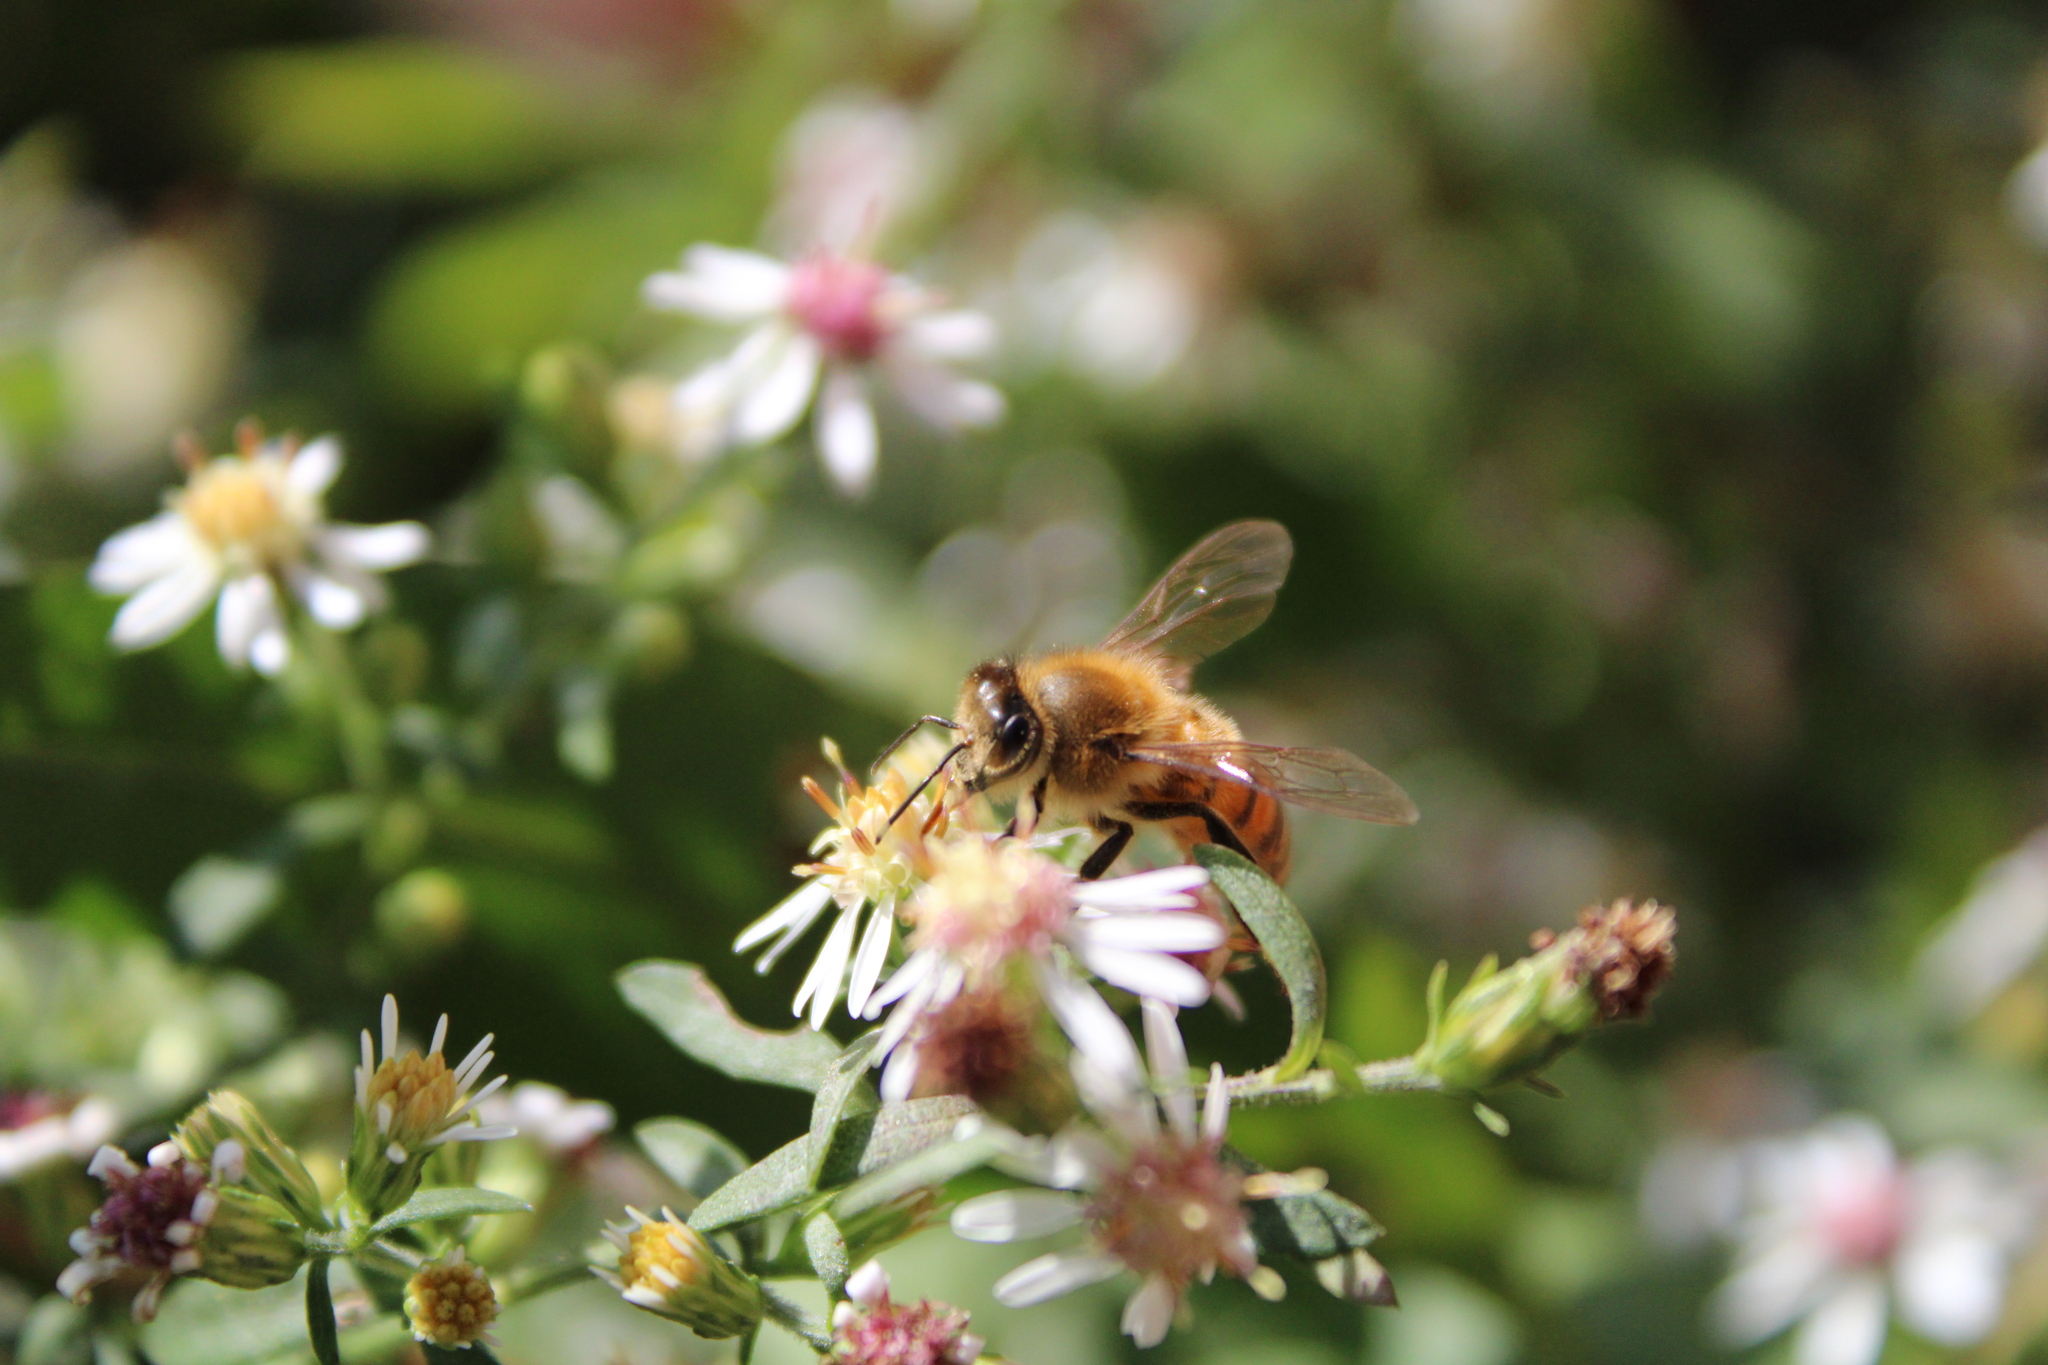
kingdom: Animalia
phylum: Arthropoda
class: Insecta
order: Hymenoptera
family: Apidae
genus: Apis
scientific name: Apis mellifera
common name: Honey bee
